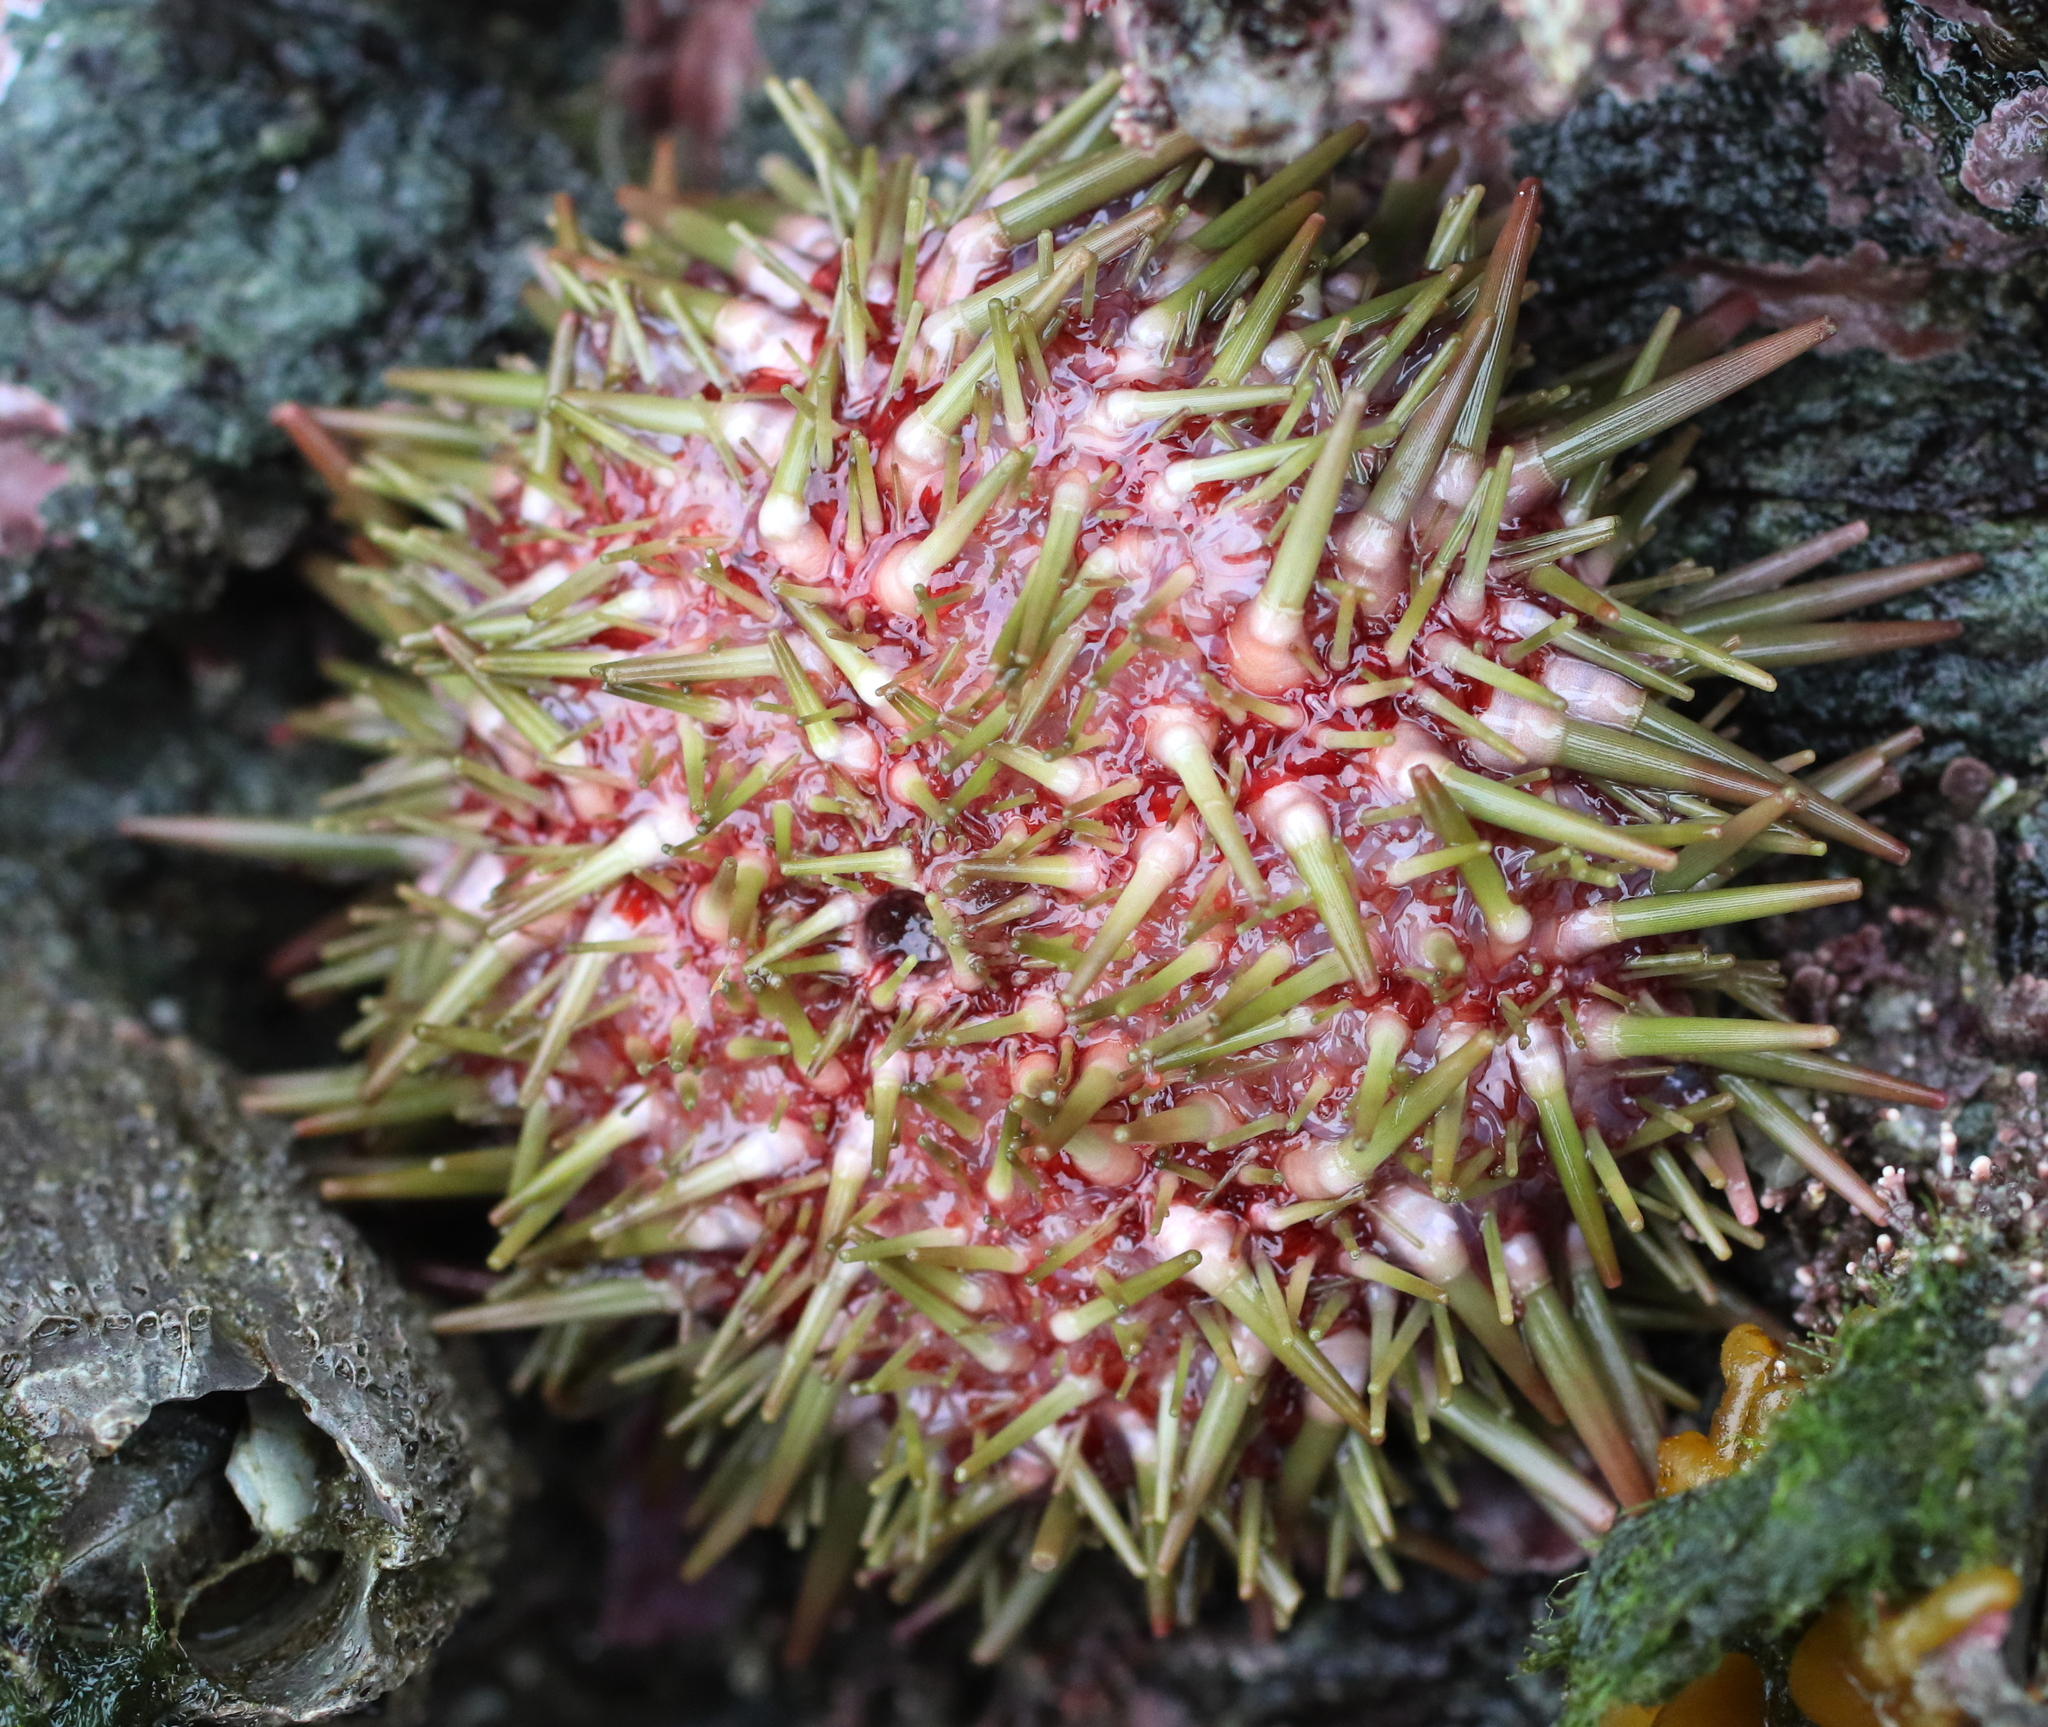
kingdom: Animalia
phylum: Echinodermata
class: Echinoidea
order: Camarodonta
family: Strongylocentrotidae
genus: Strongylocentrotus
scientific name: Strongylocentrotus purpuratus
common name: Purple sea urchin
